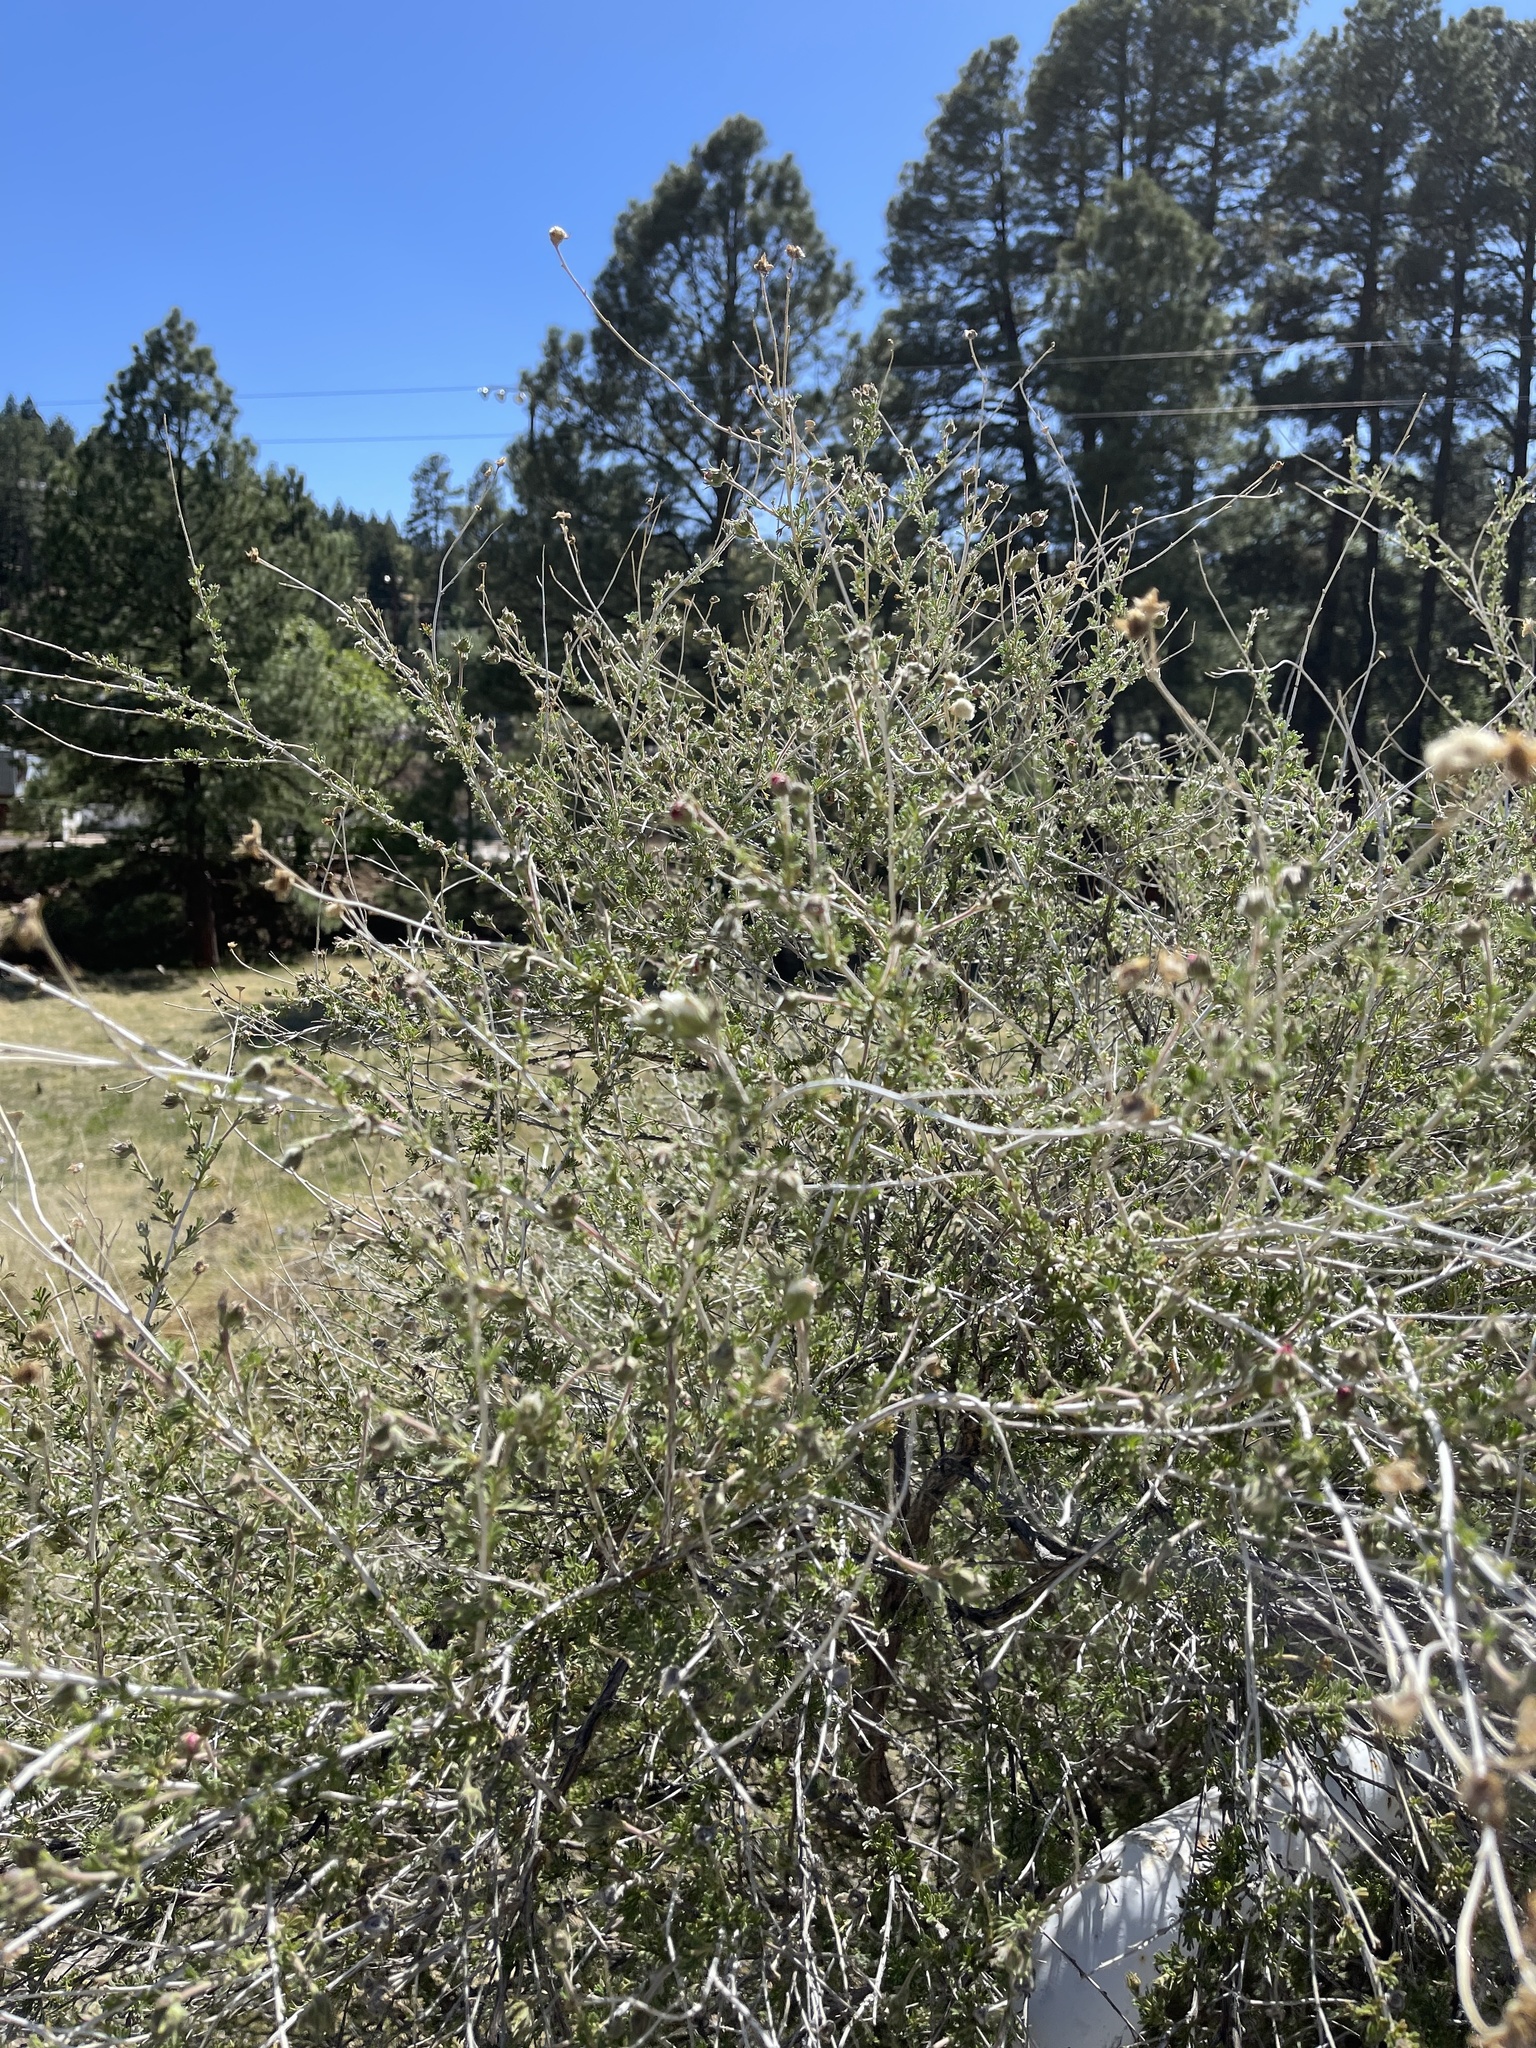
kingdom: Plantae
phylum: Tracheophyta
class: Magnoliopsida
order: Rosales
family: Rosaceae
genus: Fallugia
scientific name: Fallugia paradoxa
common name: Apache-plume
